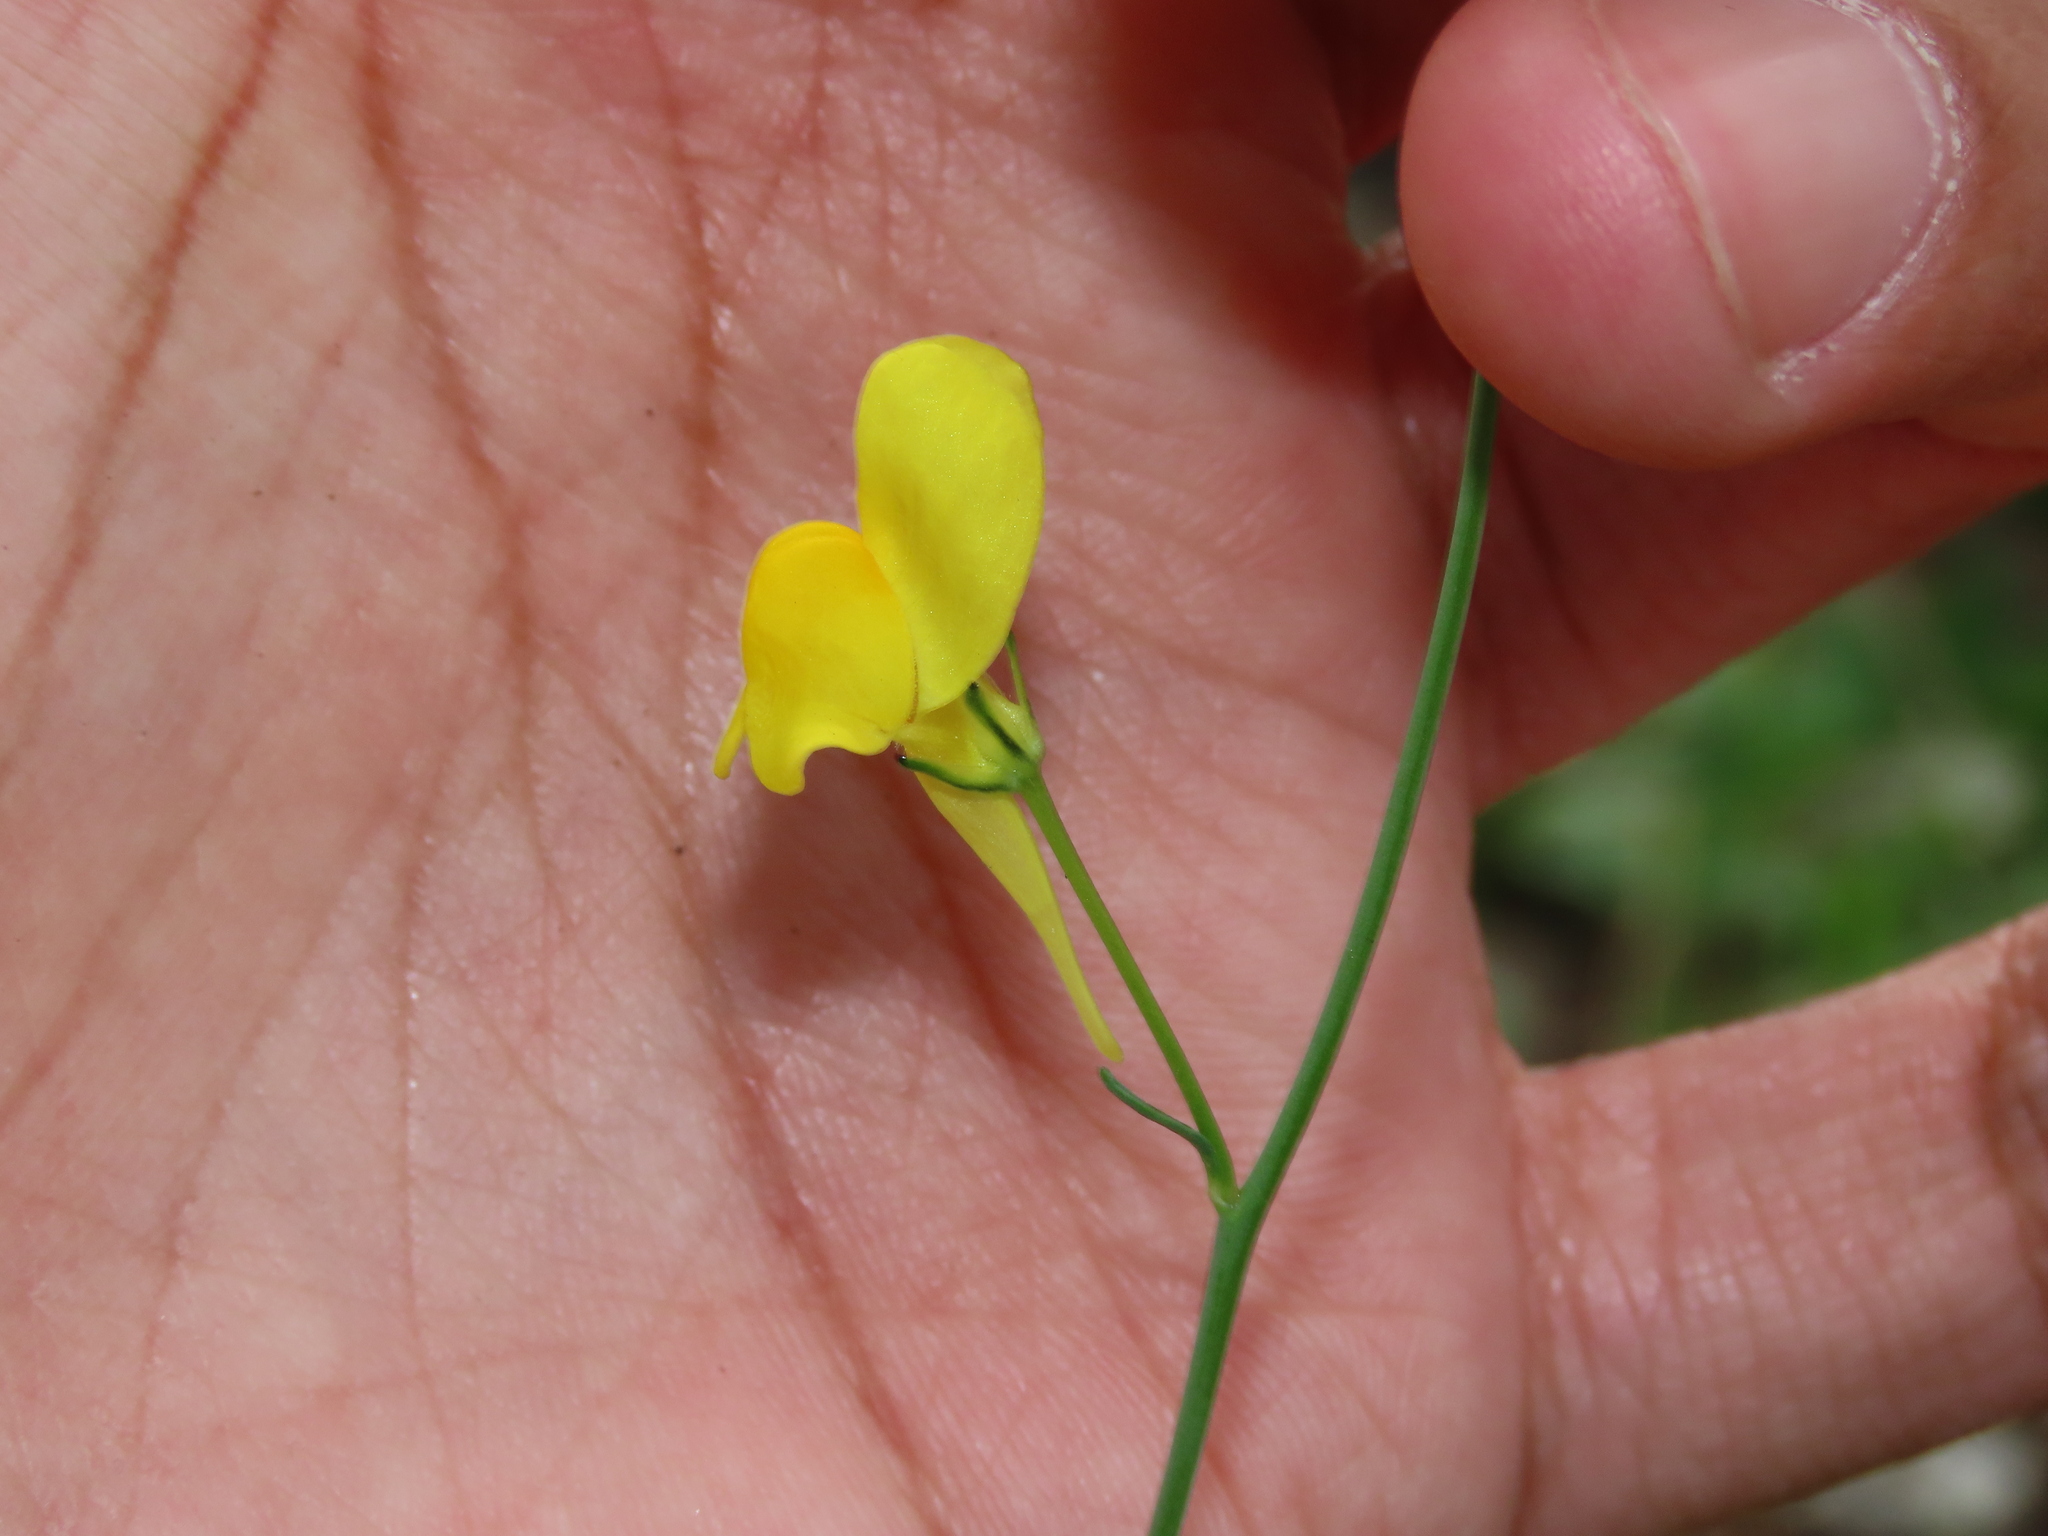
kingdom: Plantae
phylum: Tracheophyta
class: Magnoliopsida
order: Lamiales
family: Plantaginaceae
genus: Linaria
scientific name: Linaria spartea
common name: Ballast toadflax
